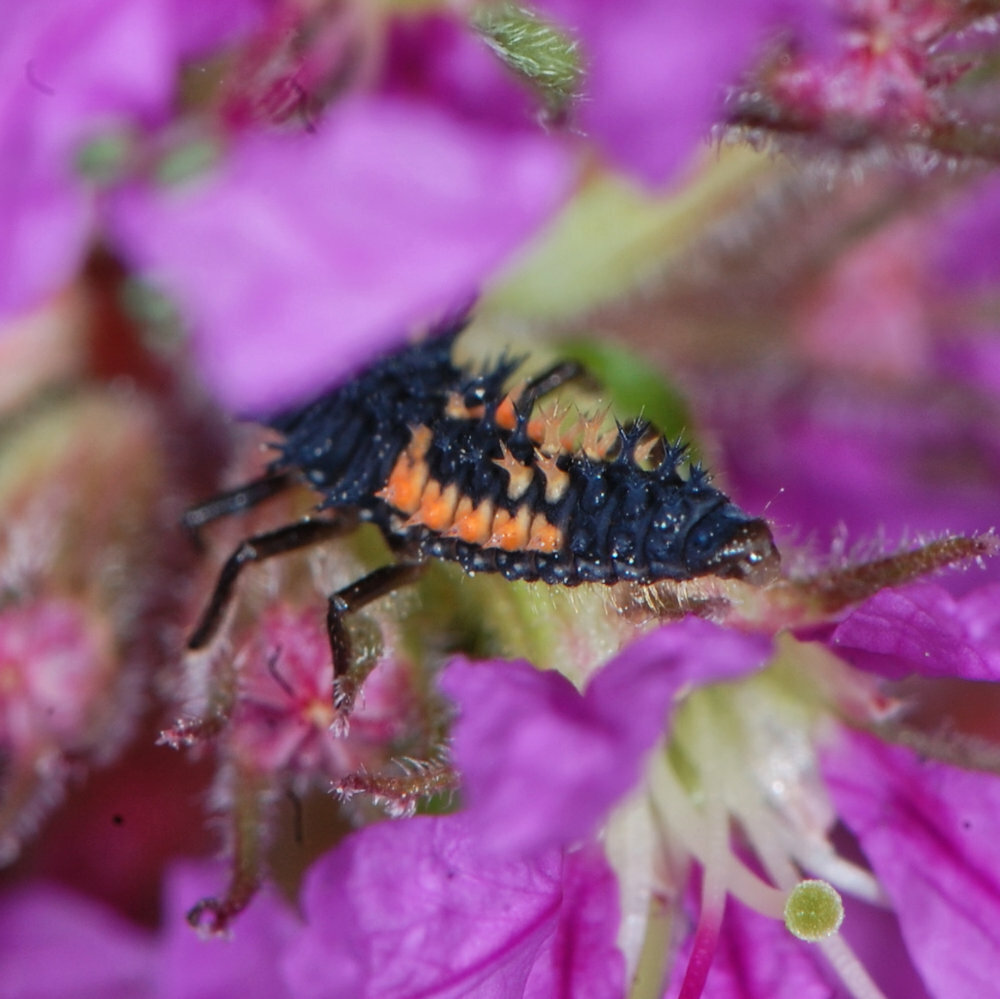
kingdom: Animalia
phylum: Arthropoda
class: Insecta
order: Coleoptera
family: Coccinellidae
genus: Harmonia
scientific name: Harmonia axyridis
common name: Harlequin ladybird
